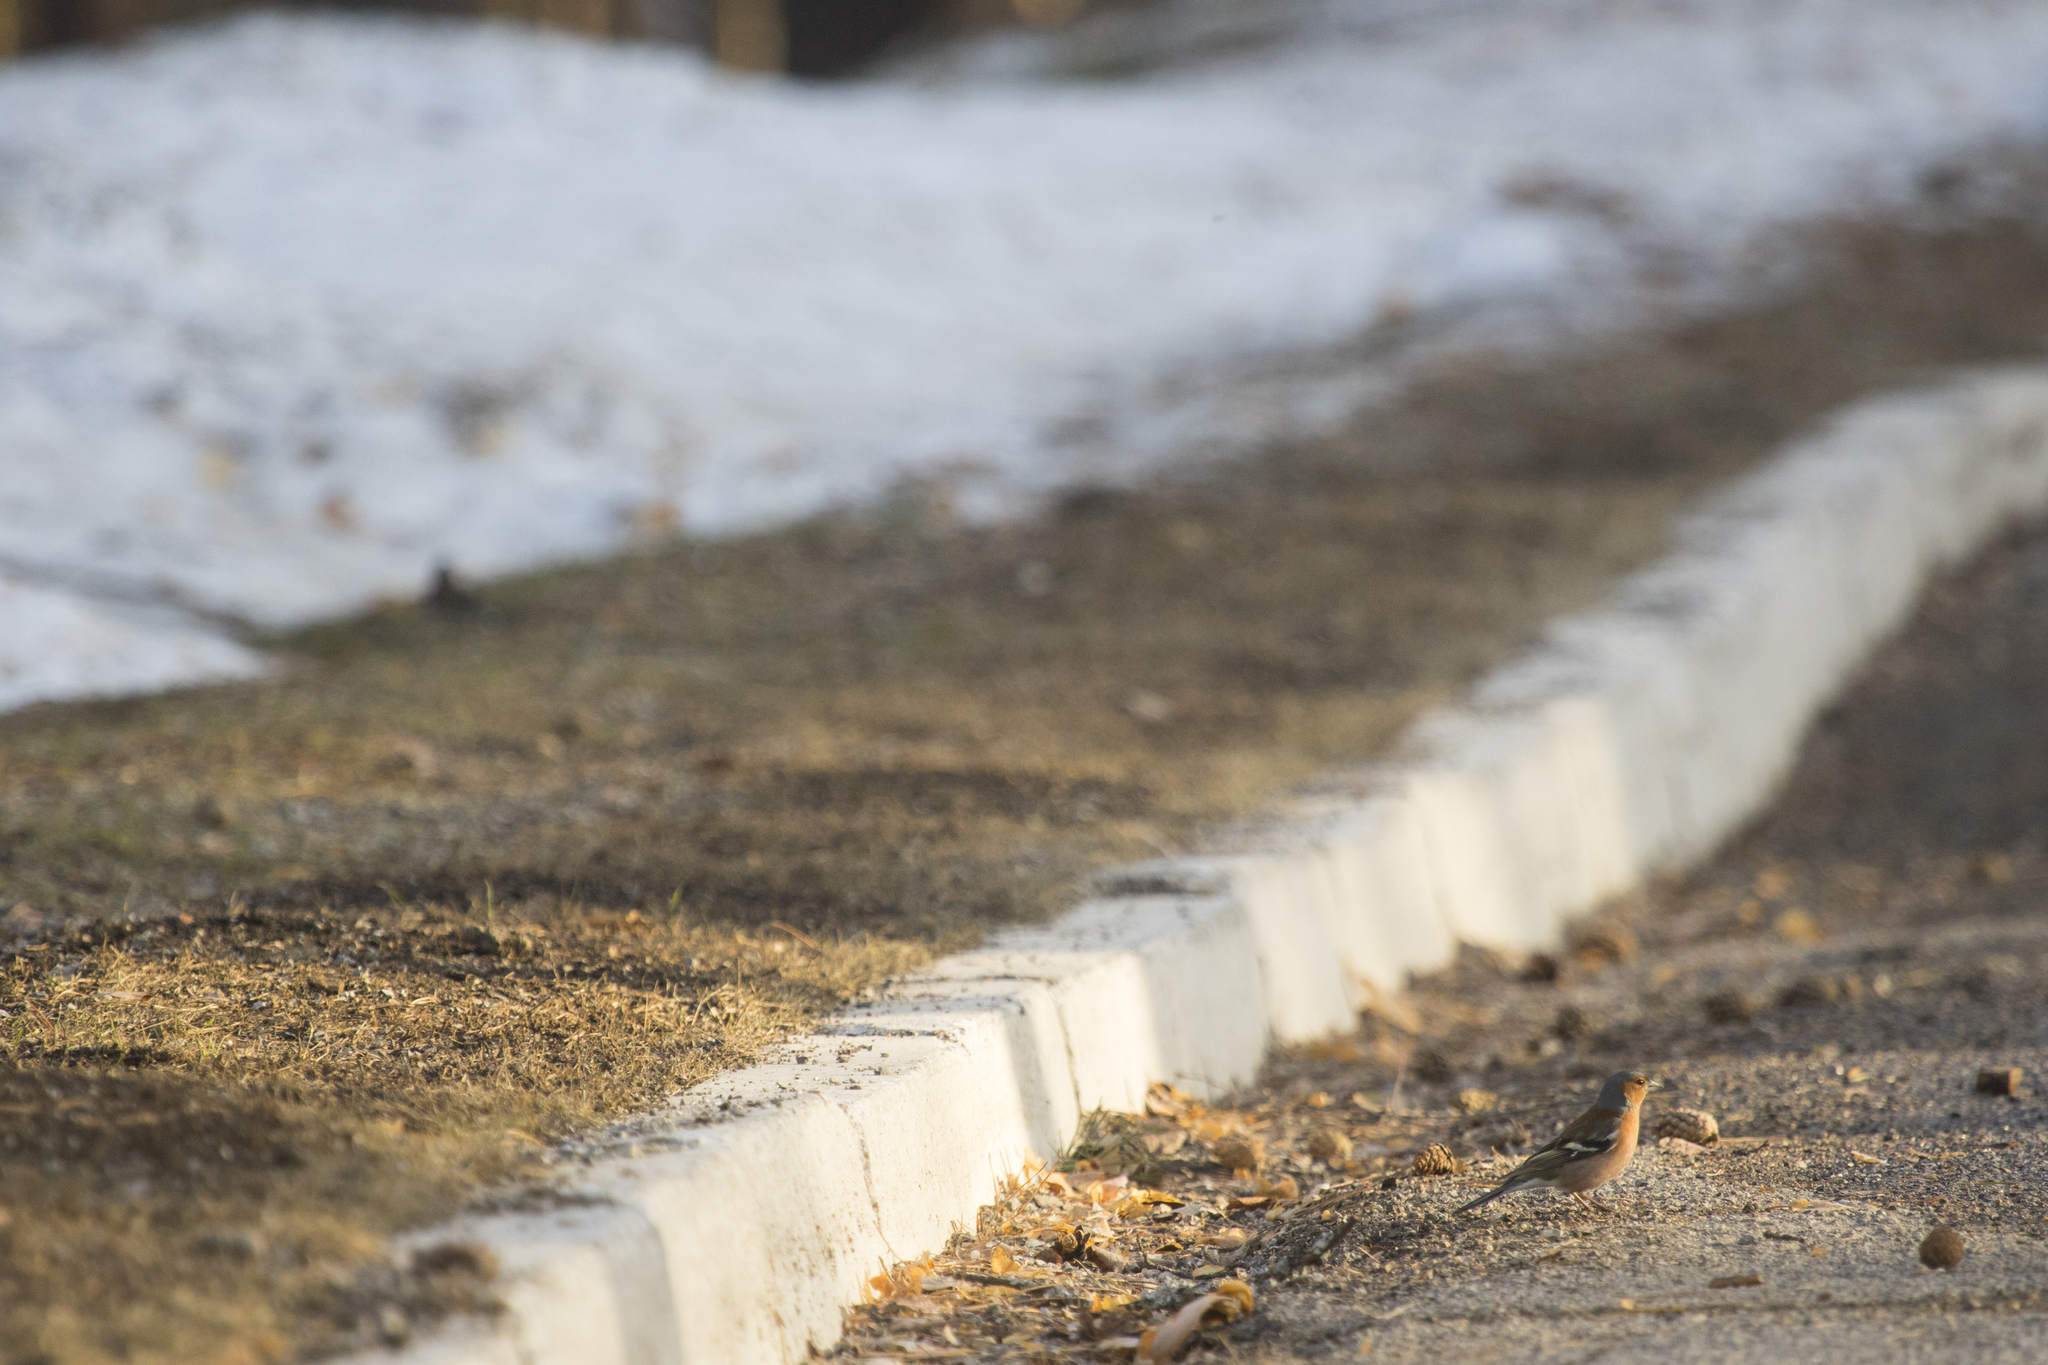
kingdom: Animalia
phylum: Chordata
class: Aves
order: Passeriformes
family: Fringillidae
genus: Fringilla
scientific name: Fringilla coelebs
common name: Common chaffinch
